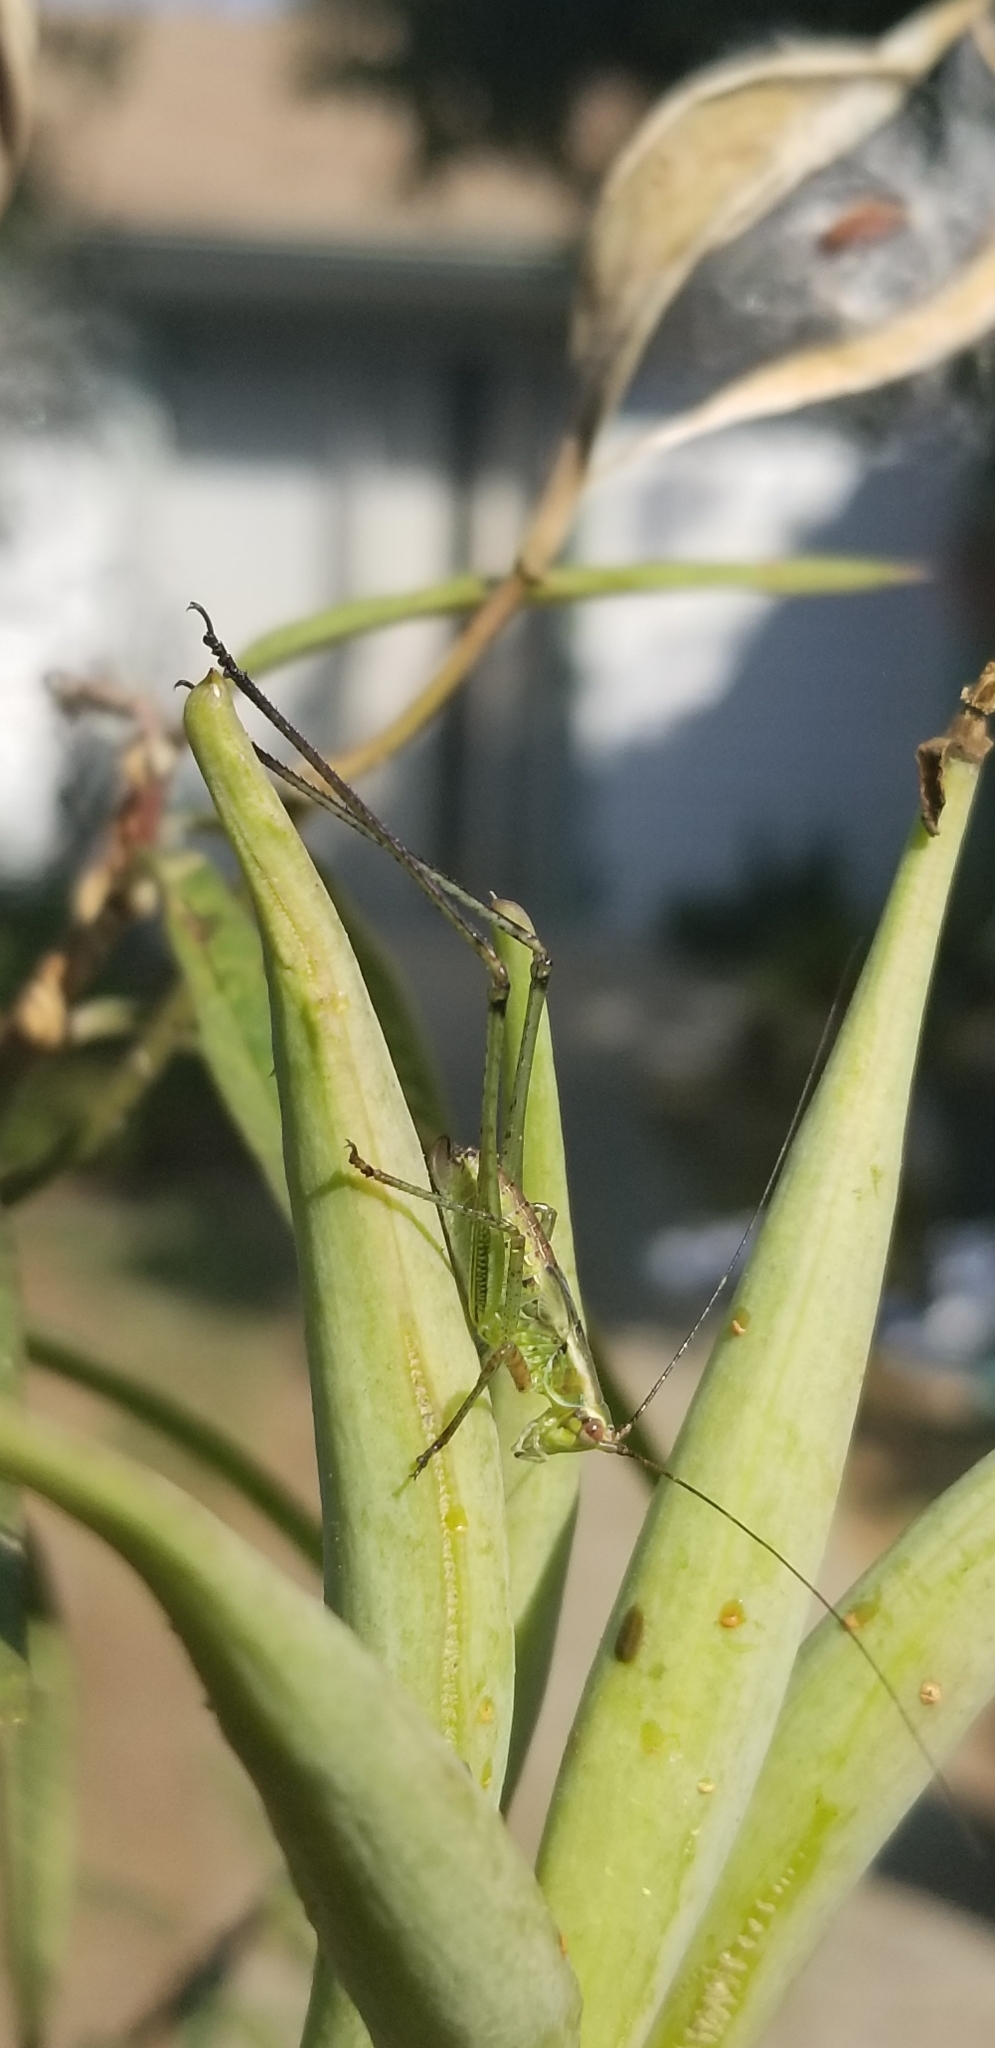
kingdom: Animalia
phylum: Arthropoda
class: Insecta
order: Orthoptera
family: Tettigoniidae
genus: Scudderia
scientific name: Scudderia
